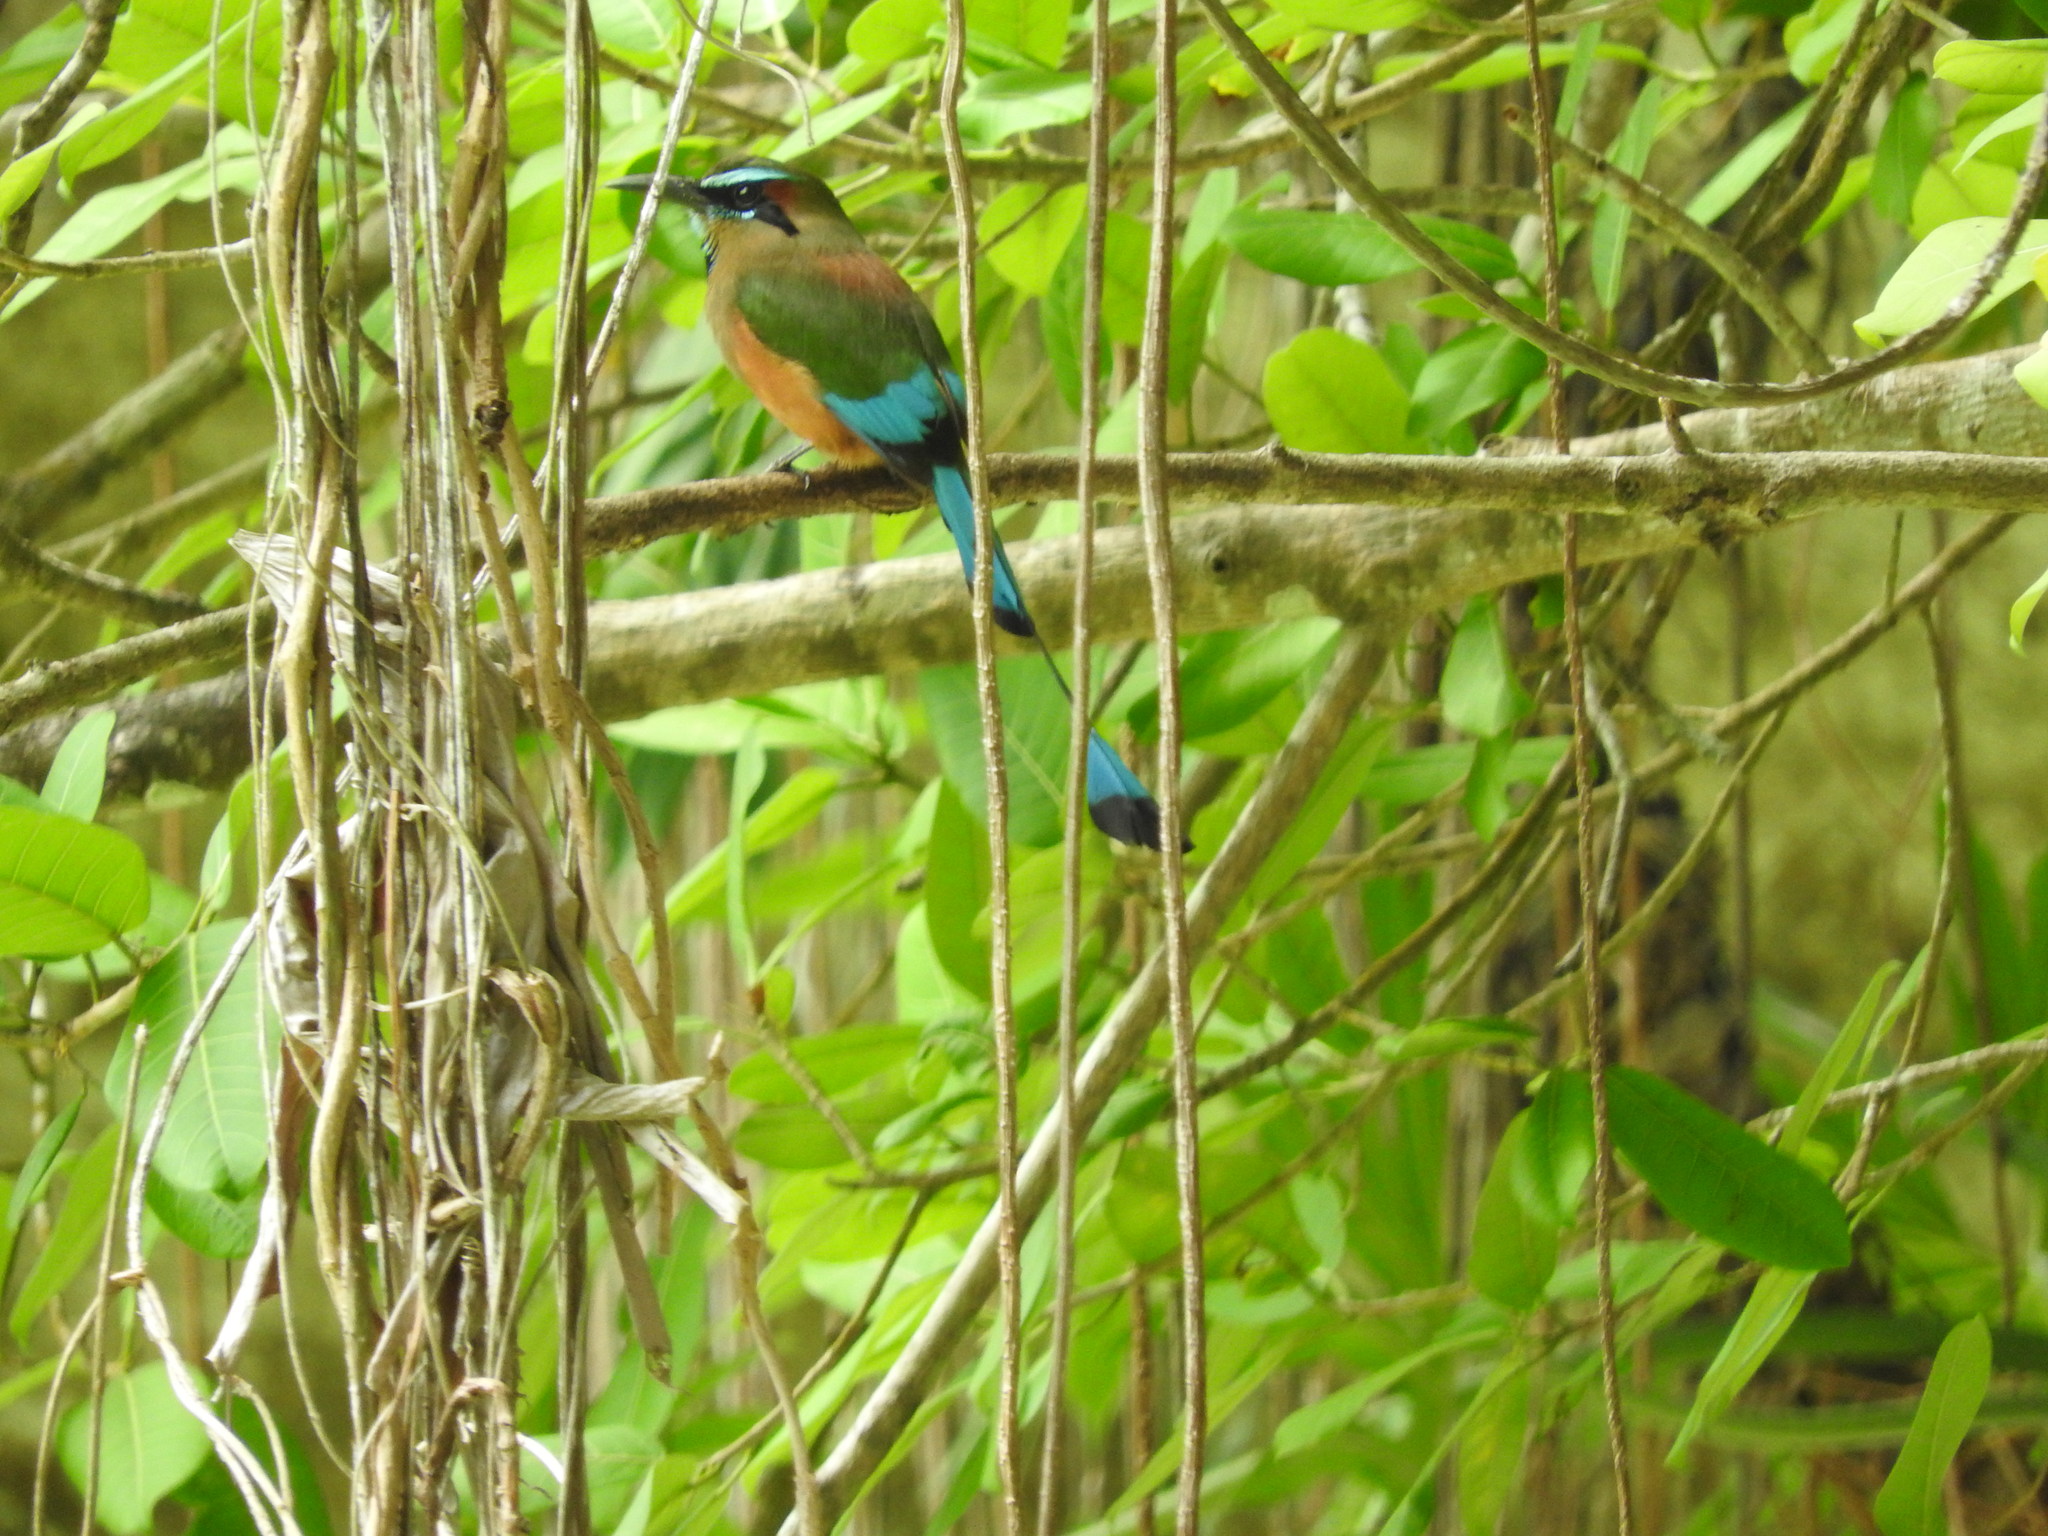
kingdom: Animalia
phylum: Chordata
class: Aves
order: Coraciiformes
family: Momotidae
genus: Eumomota
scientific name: Eumomota superciliosa
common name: Turquoise-browed motmot
